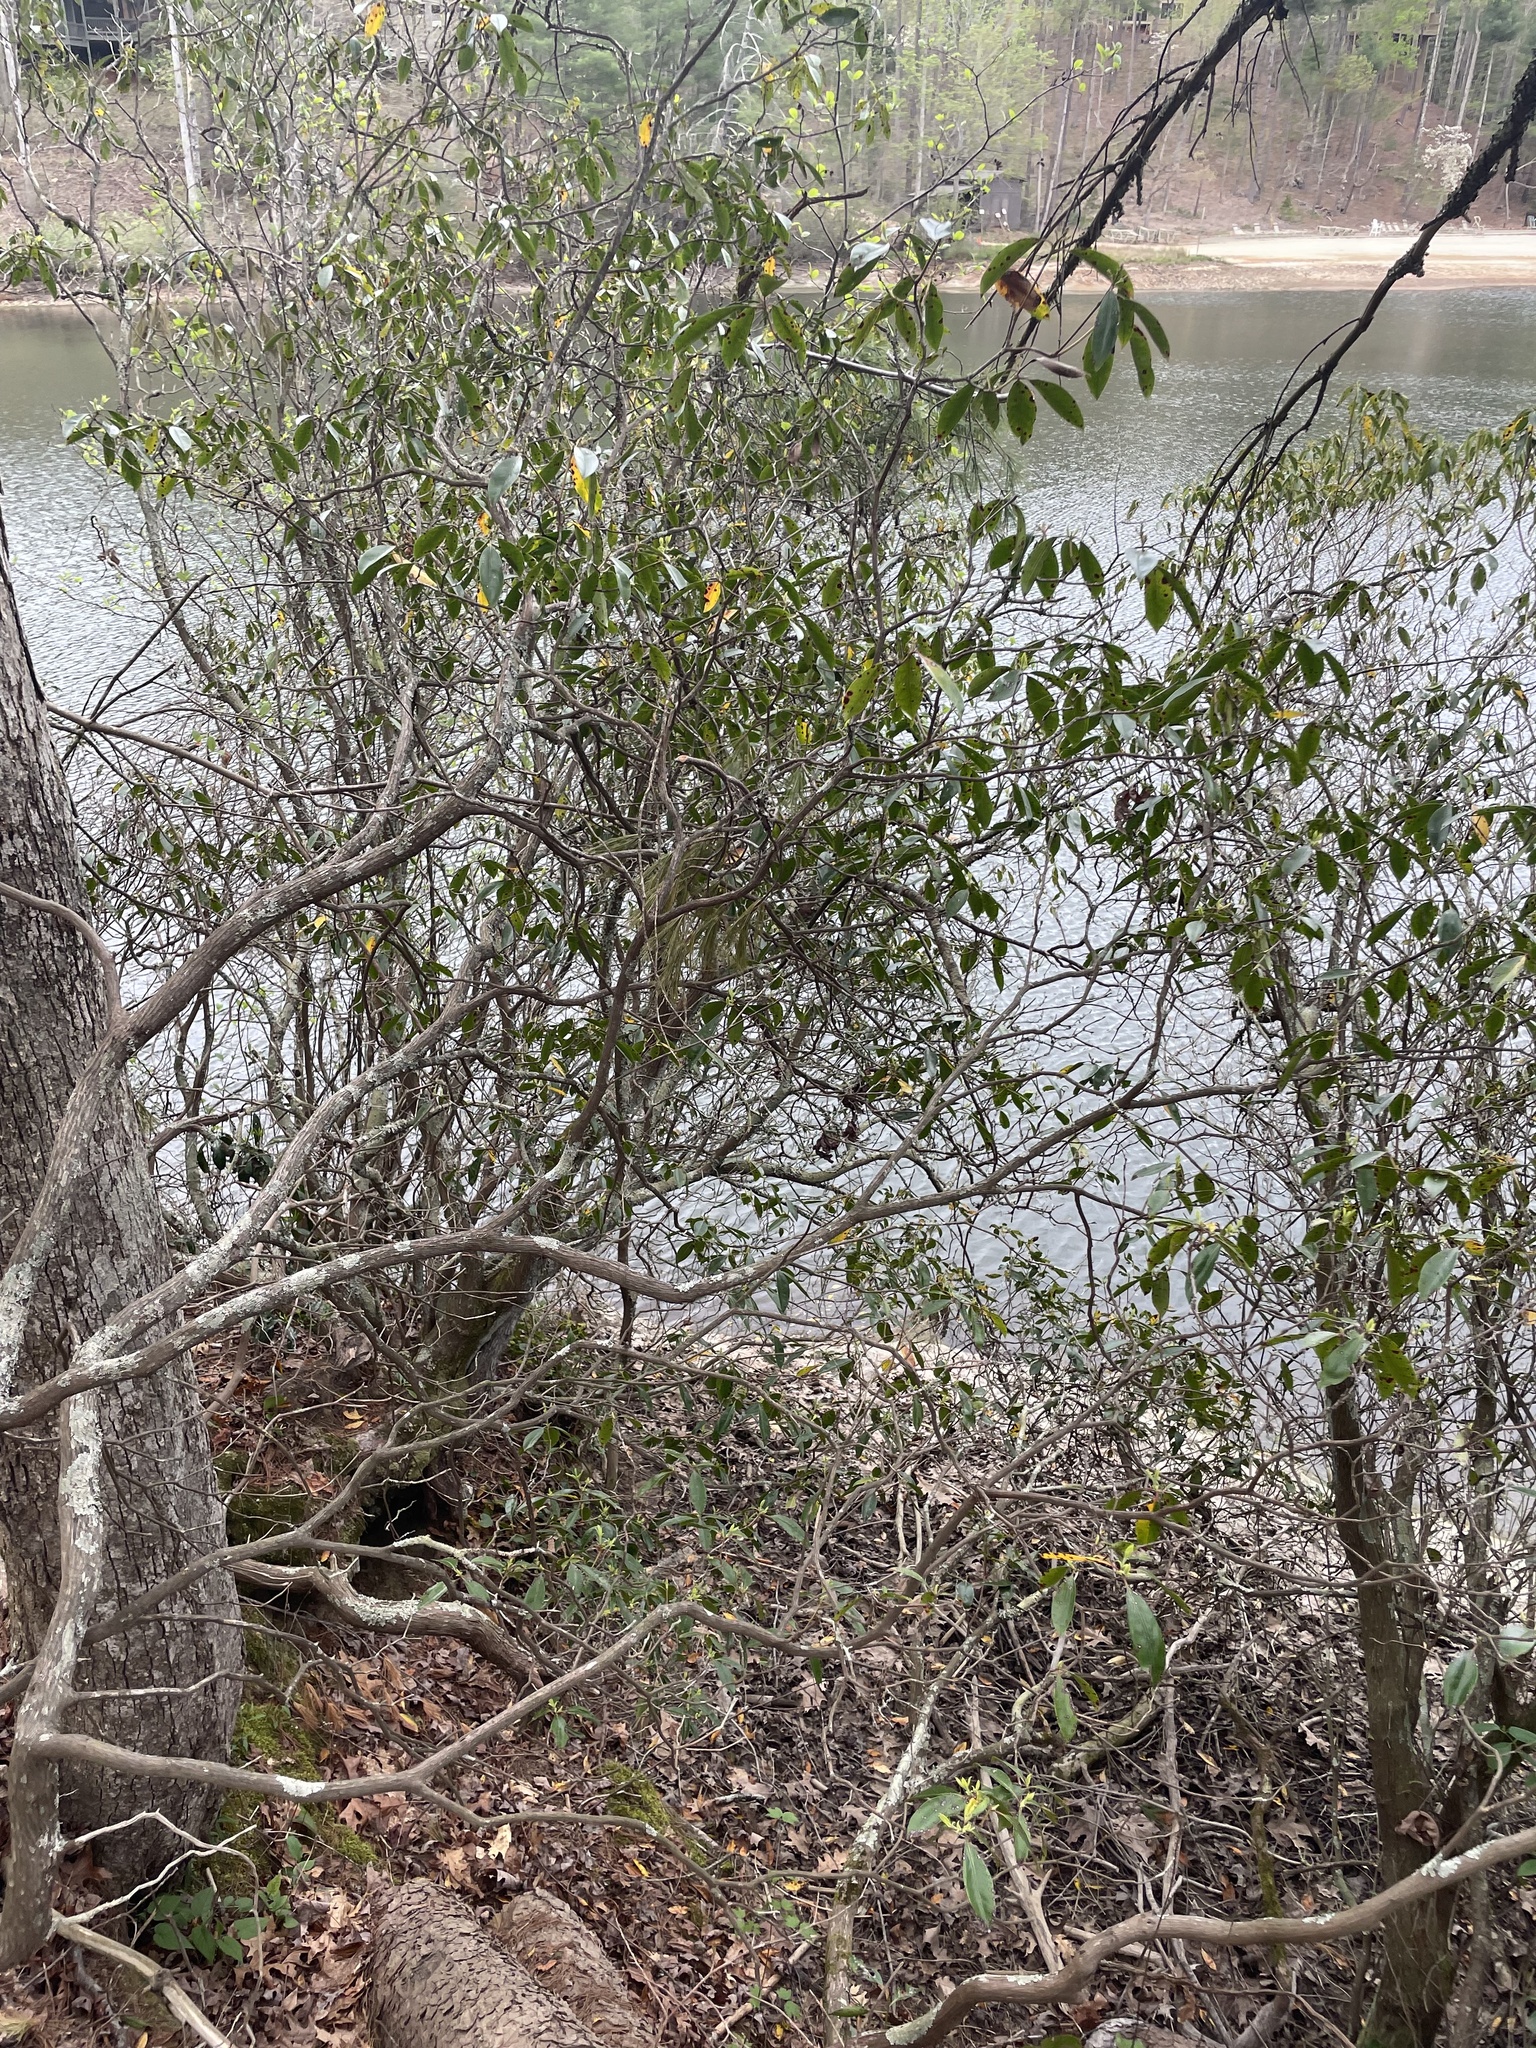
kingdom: Plantae
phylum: Tracheophyta
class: Magnoliopsida
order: Ericales
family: Ericaceae
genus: Kalmia
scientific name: Kalmia latifolia
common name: Mountain-laurel
